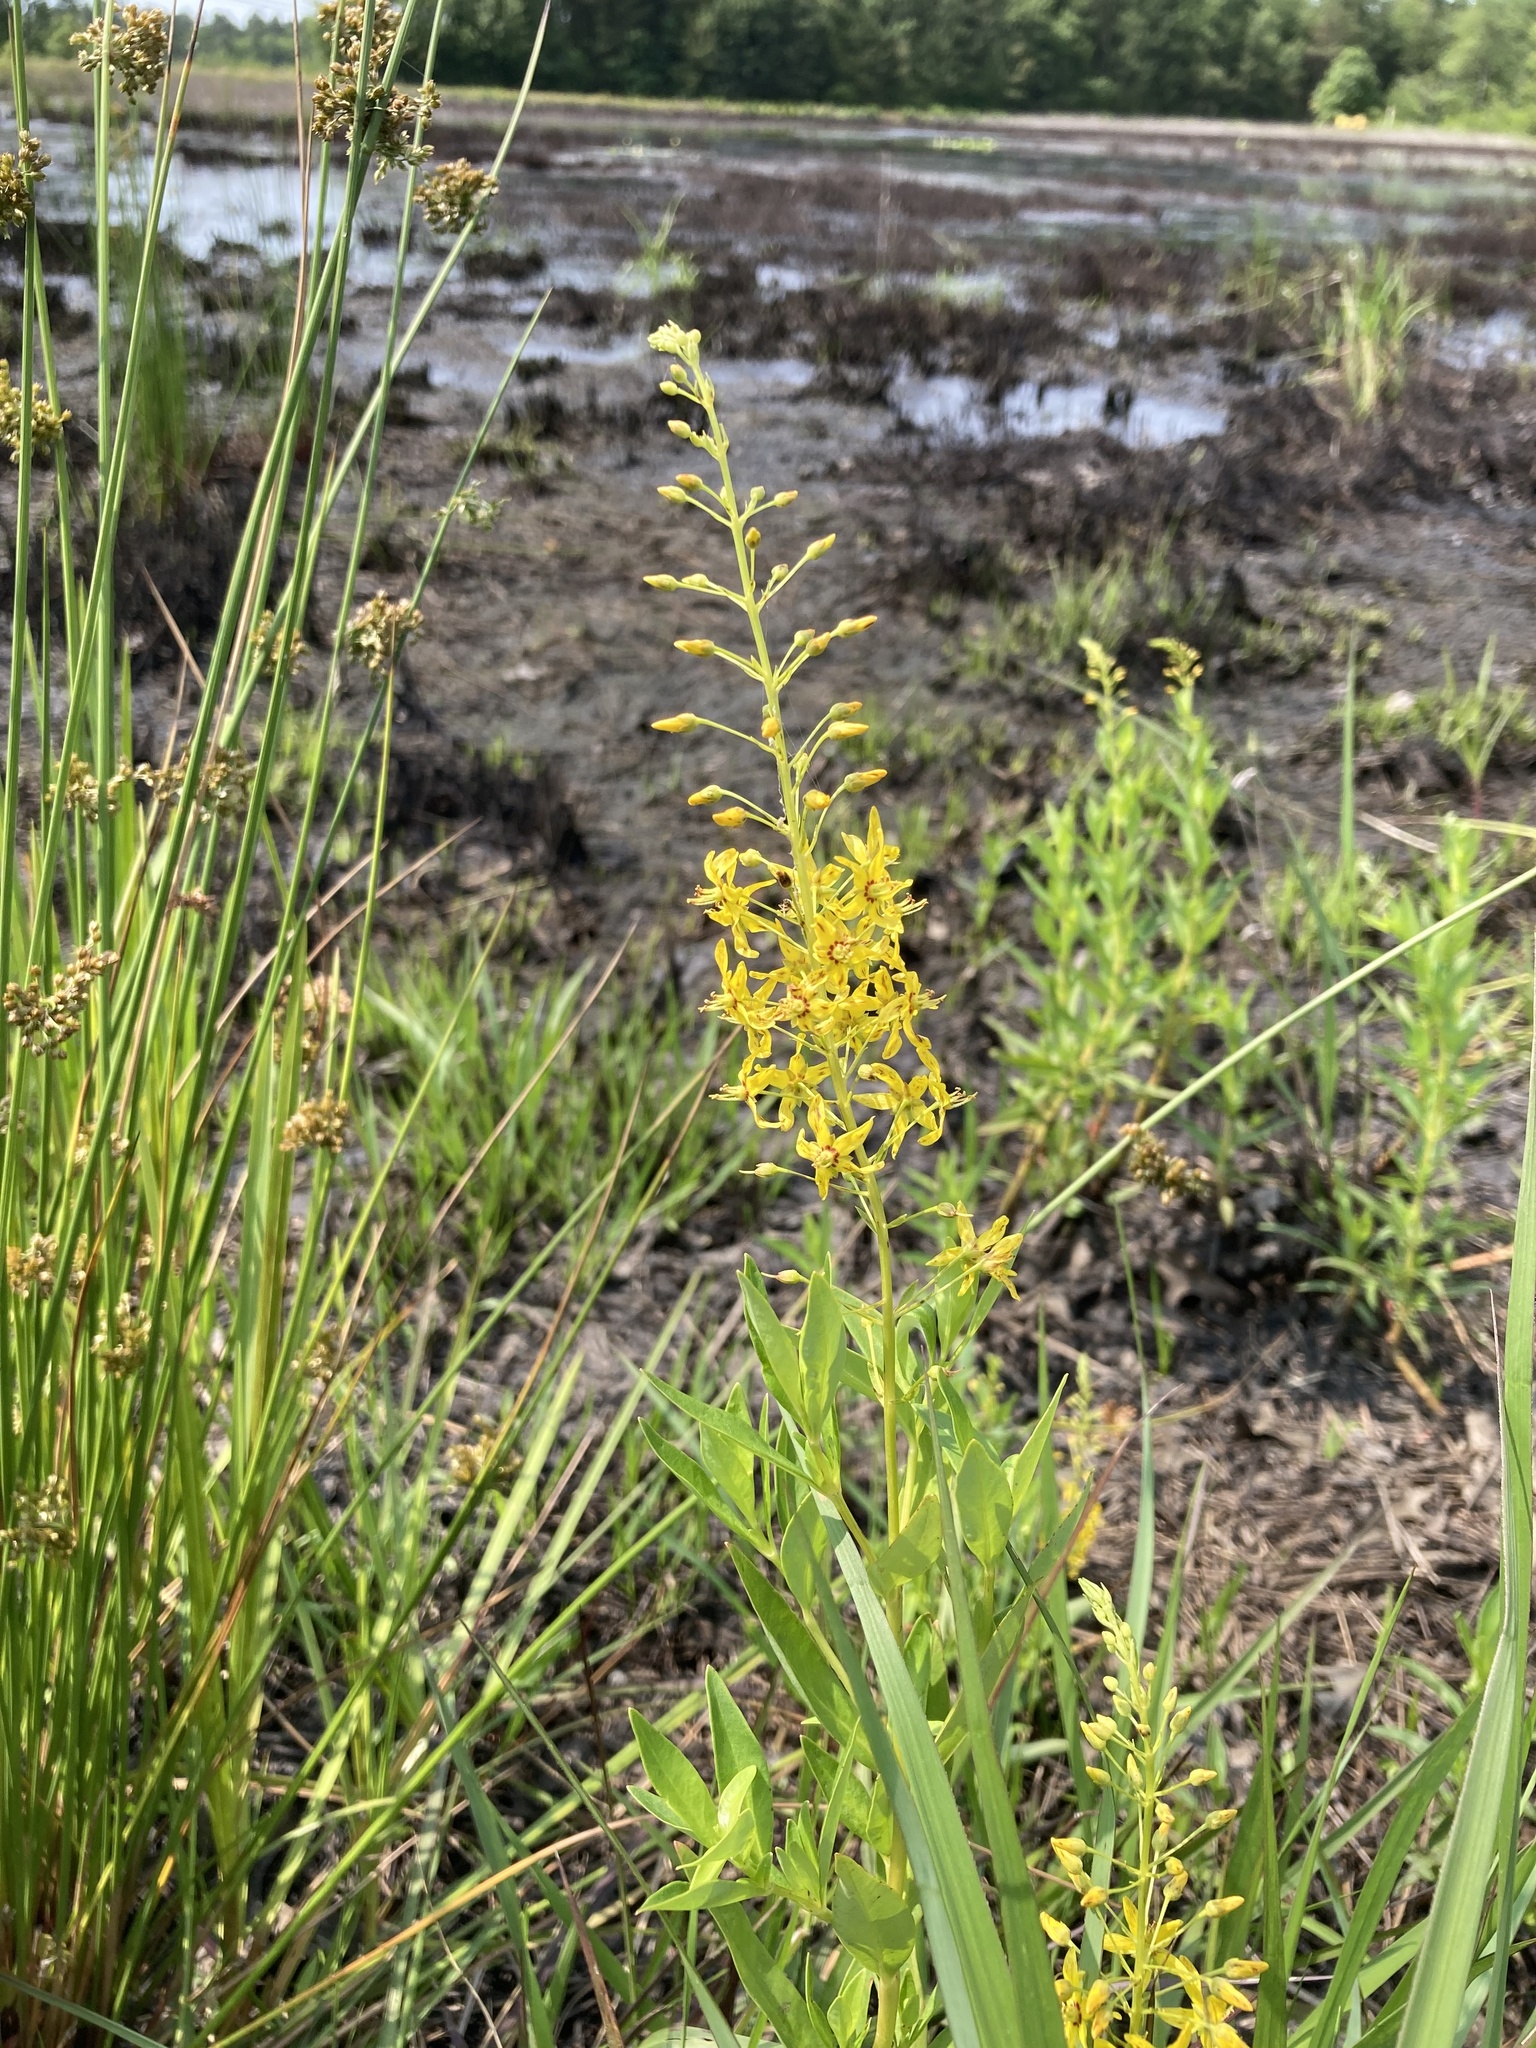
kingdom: Plantae
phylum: Tracheophyta
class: Magnoliopsida
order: Ericales
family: Primulaceae
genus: Lysimachia
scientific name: Lysimachia terrestris
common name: Lake loosestrife
